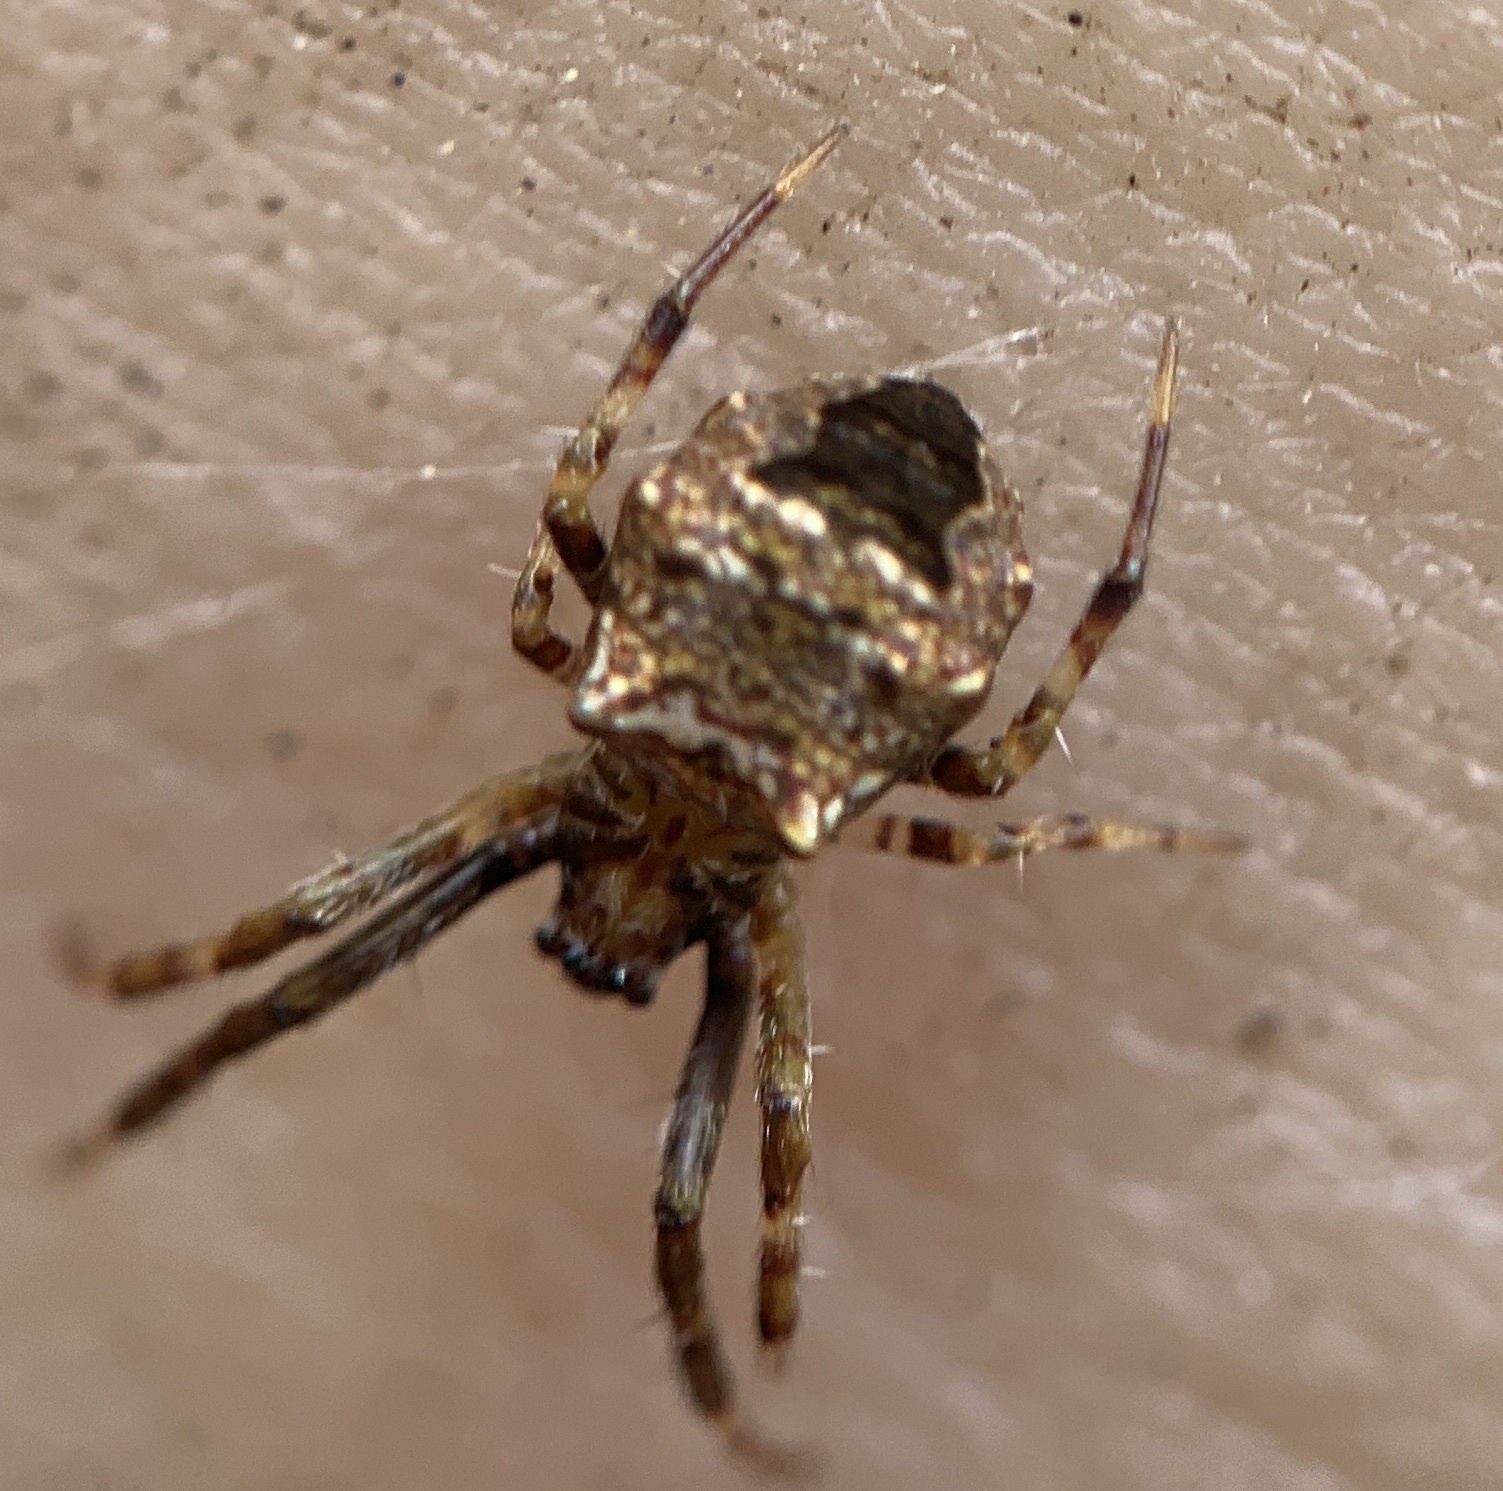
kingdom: Animalia
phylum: Arthropoda
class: Arachnida
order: Araneae
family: Araneidae
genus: Gea
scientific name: Gea heptagon
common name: Orb weavers
